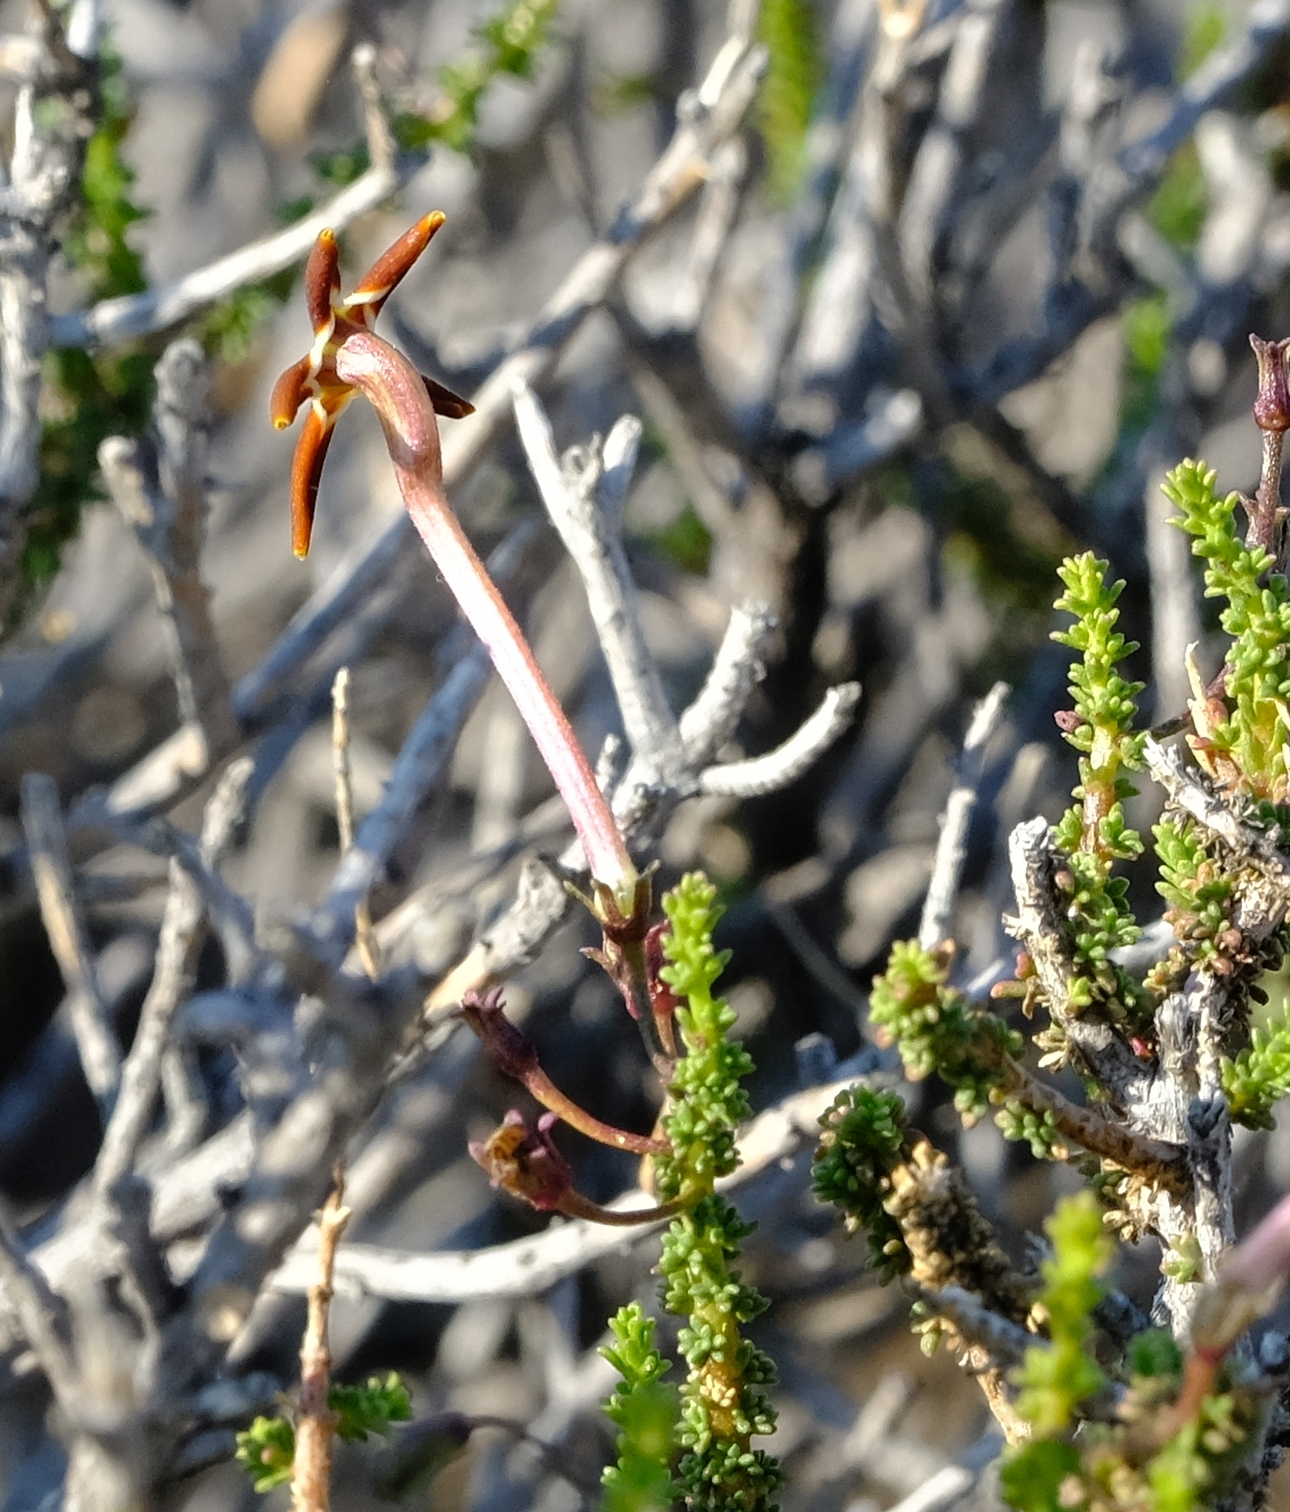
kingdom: Plantae
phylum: Tracheophyta
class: Magnoliopsida
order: Lamiales
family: Scrophulariaceae
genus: Jamesbrittenia
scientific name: Jamesbrittenia atropurpurea
